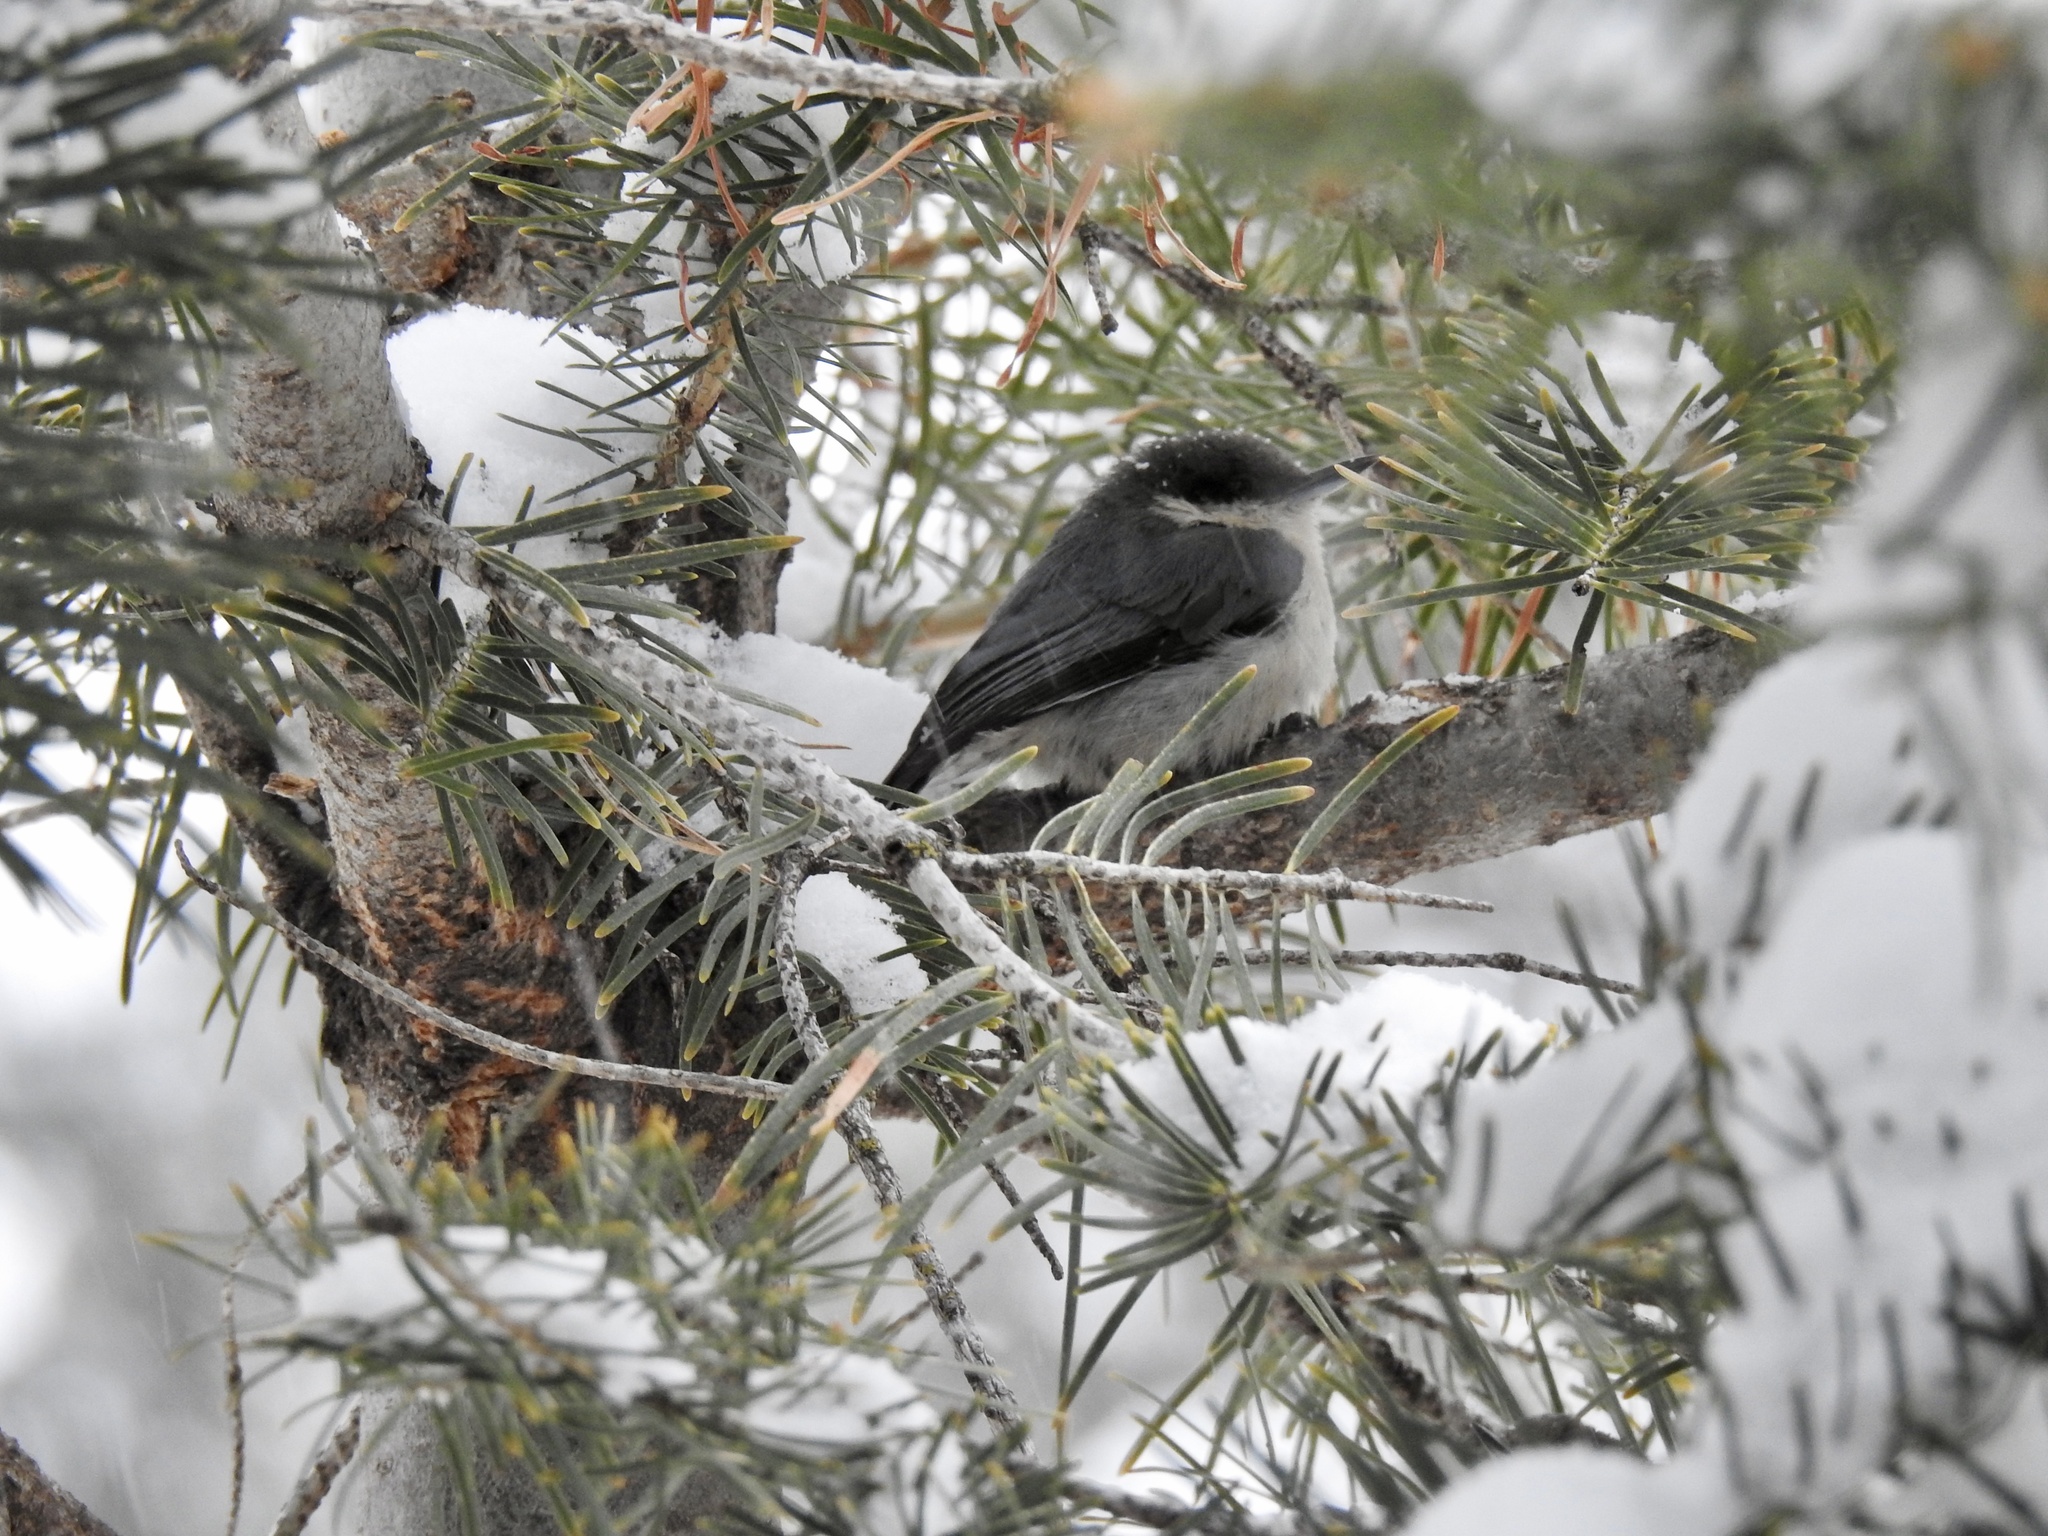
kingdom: Animalia
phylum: Chordata
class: Aves
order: Passeriformes
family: Sittidae
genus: Sitta
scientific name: Sitta pygmaea
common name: Pygmy nuthatch
